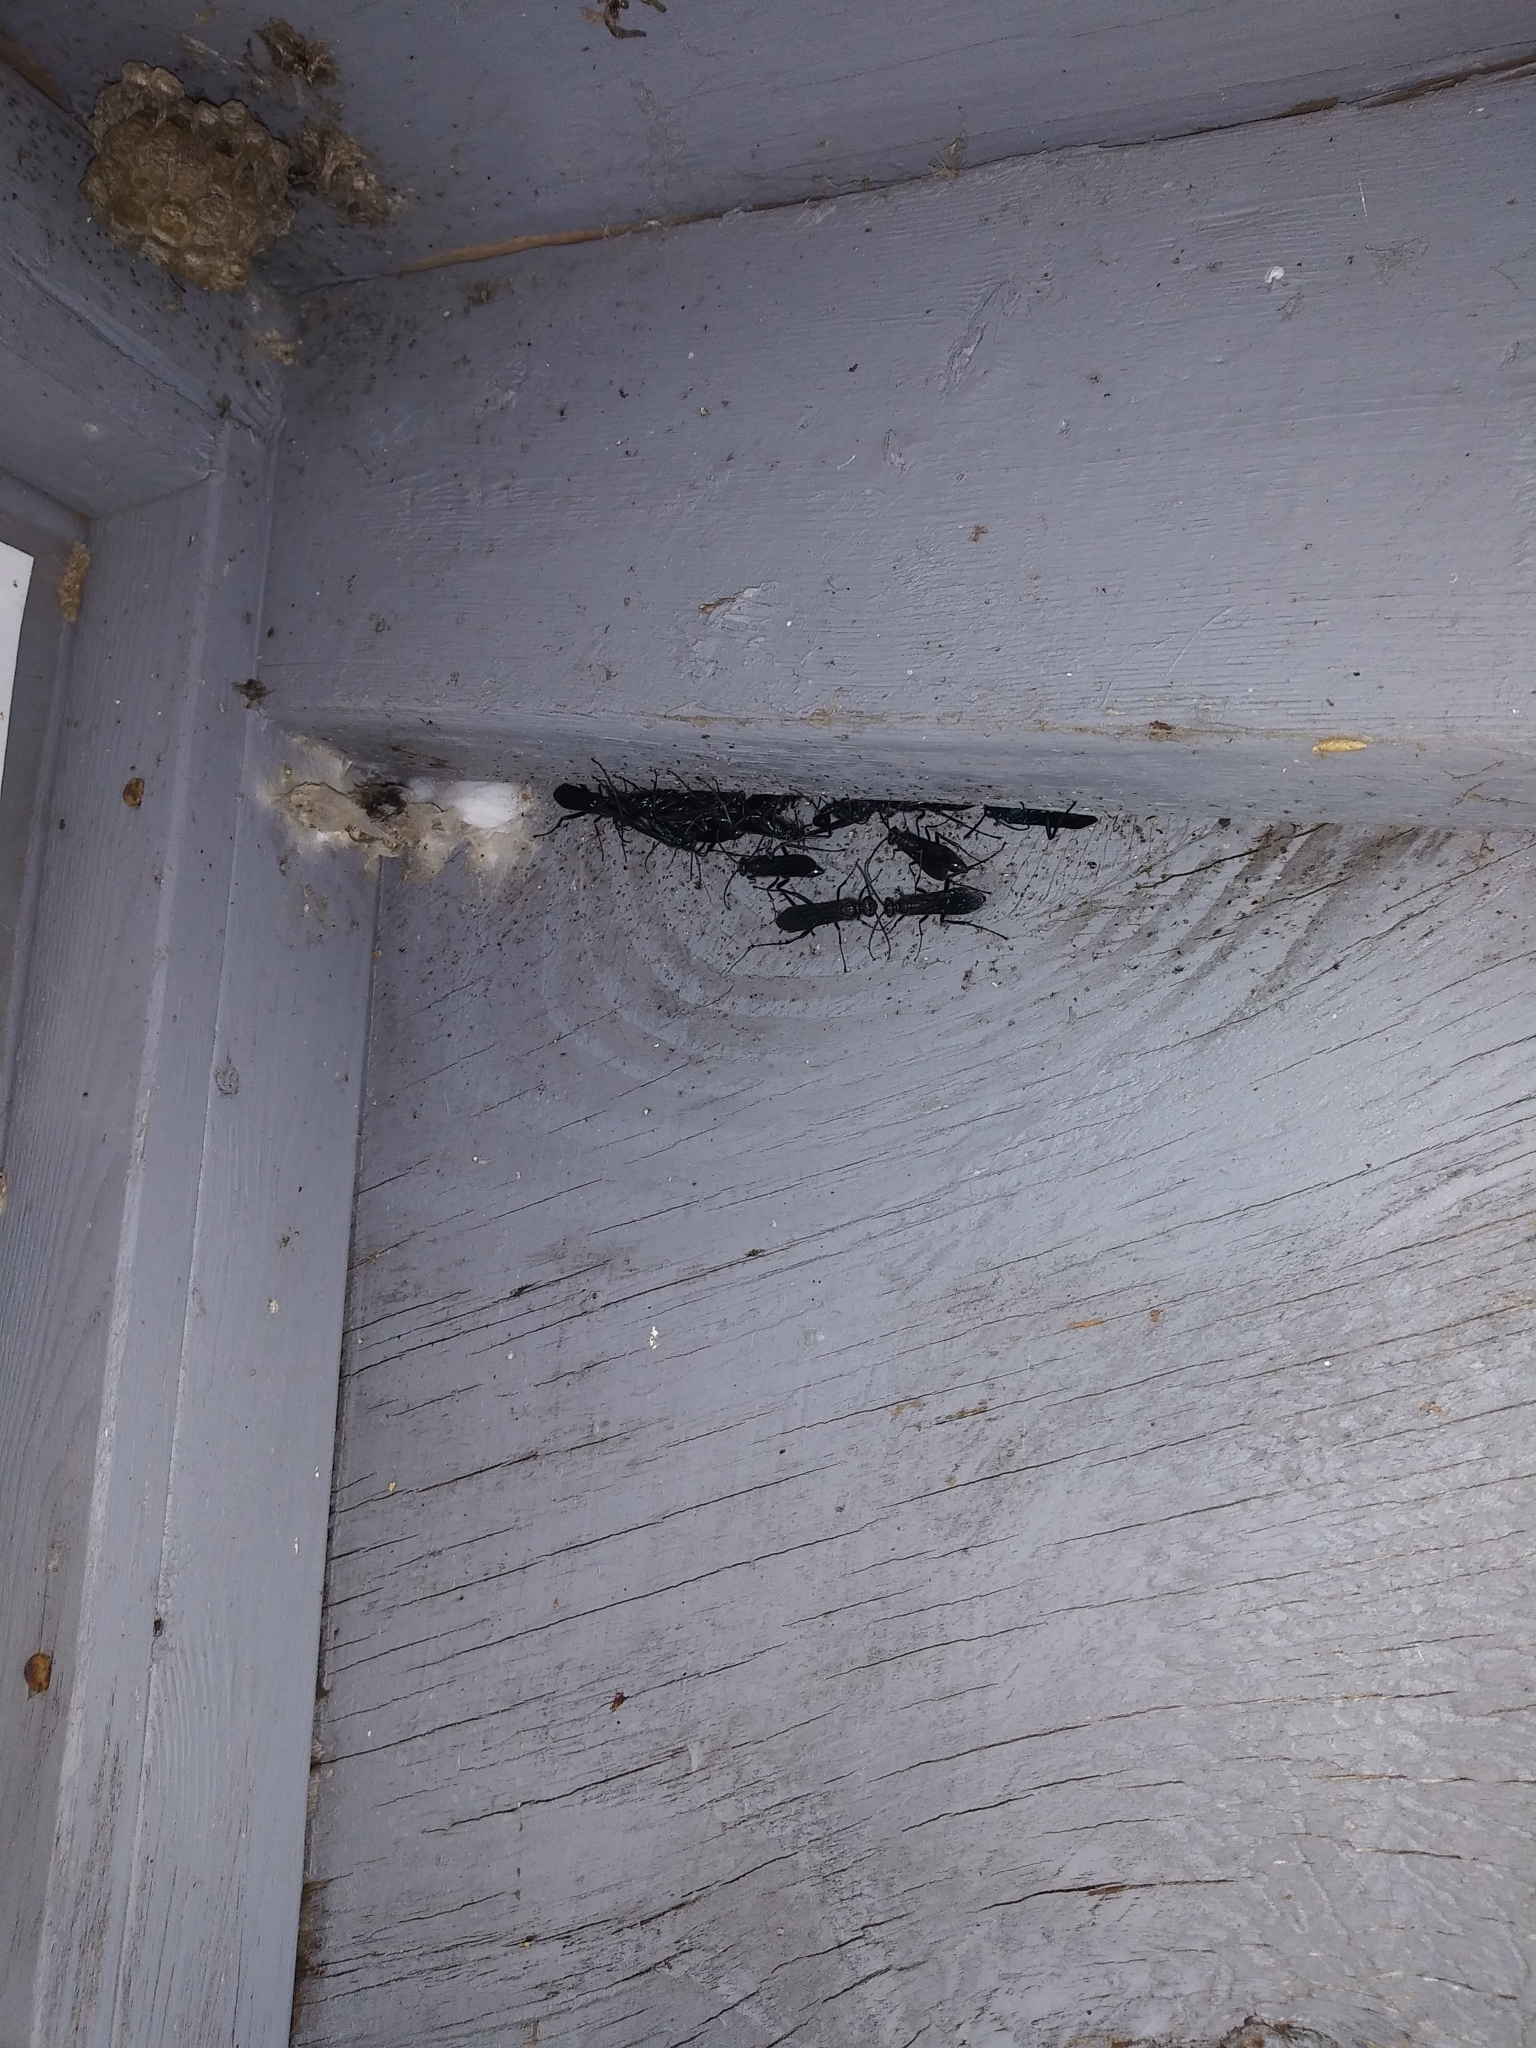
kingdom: Animalia
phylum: Arthropoda
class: Insecta
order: Hymenoptera
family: Sphecidae
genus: Chalybion
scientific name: Chalybion californicum
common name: Mud dauber
